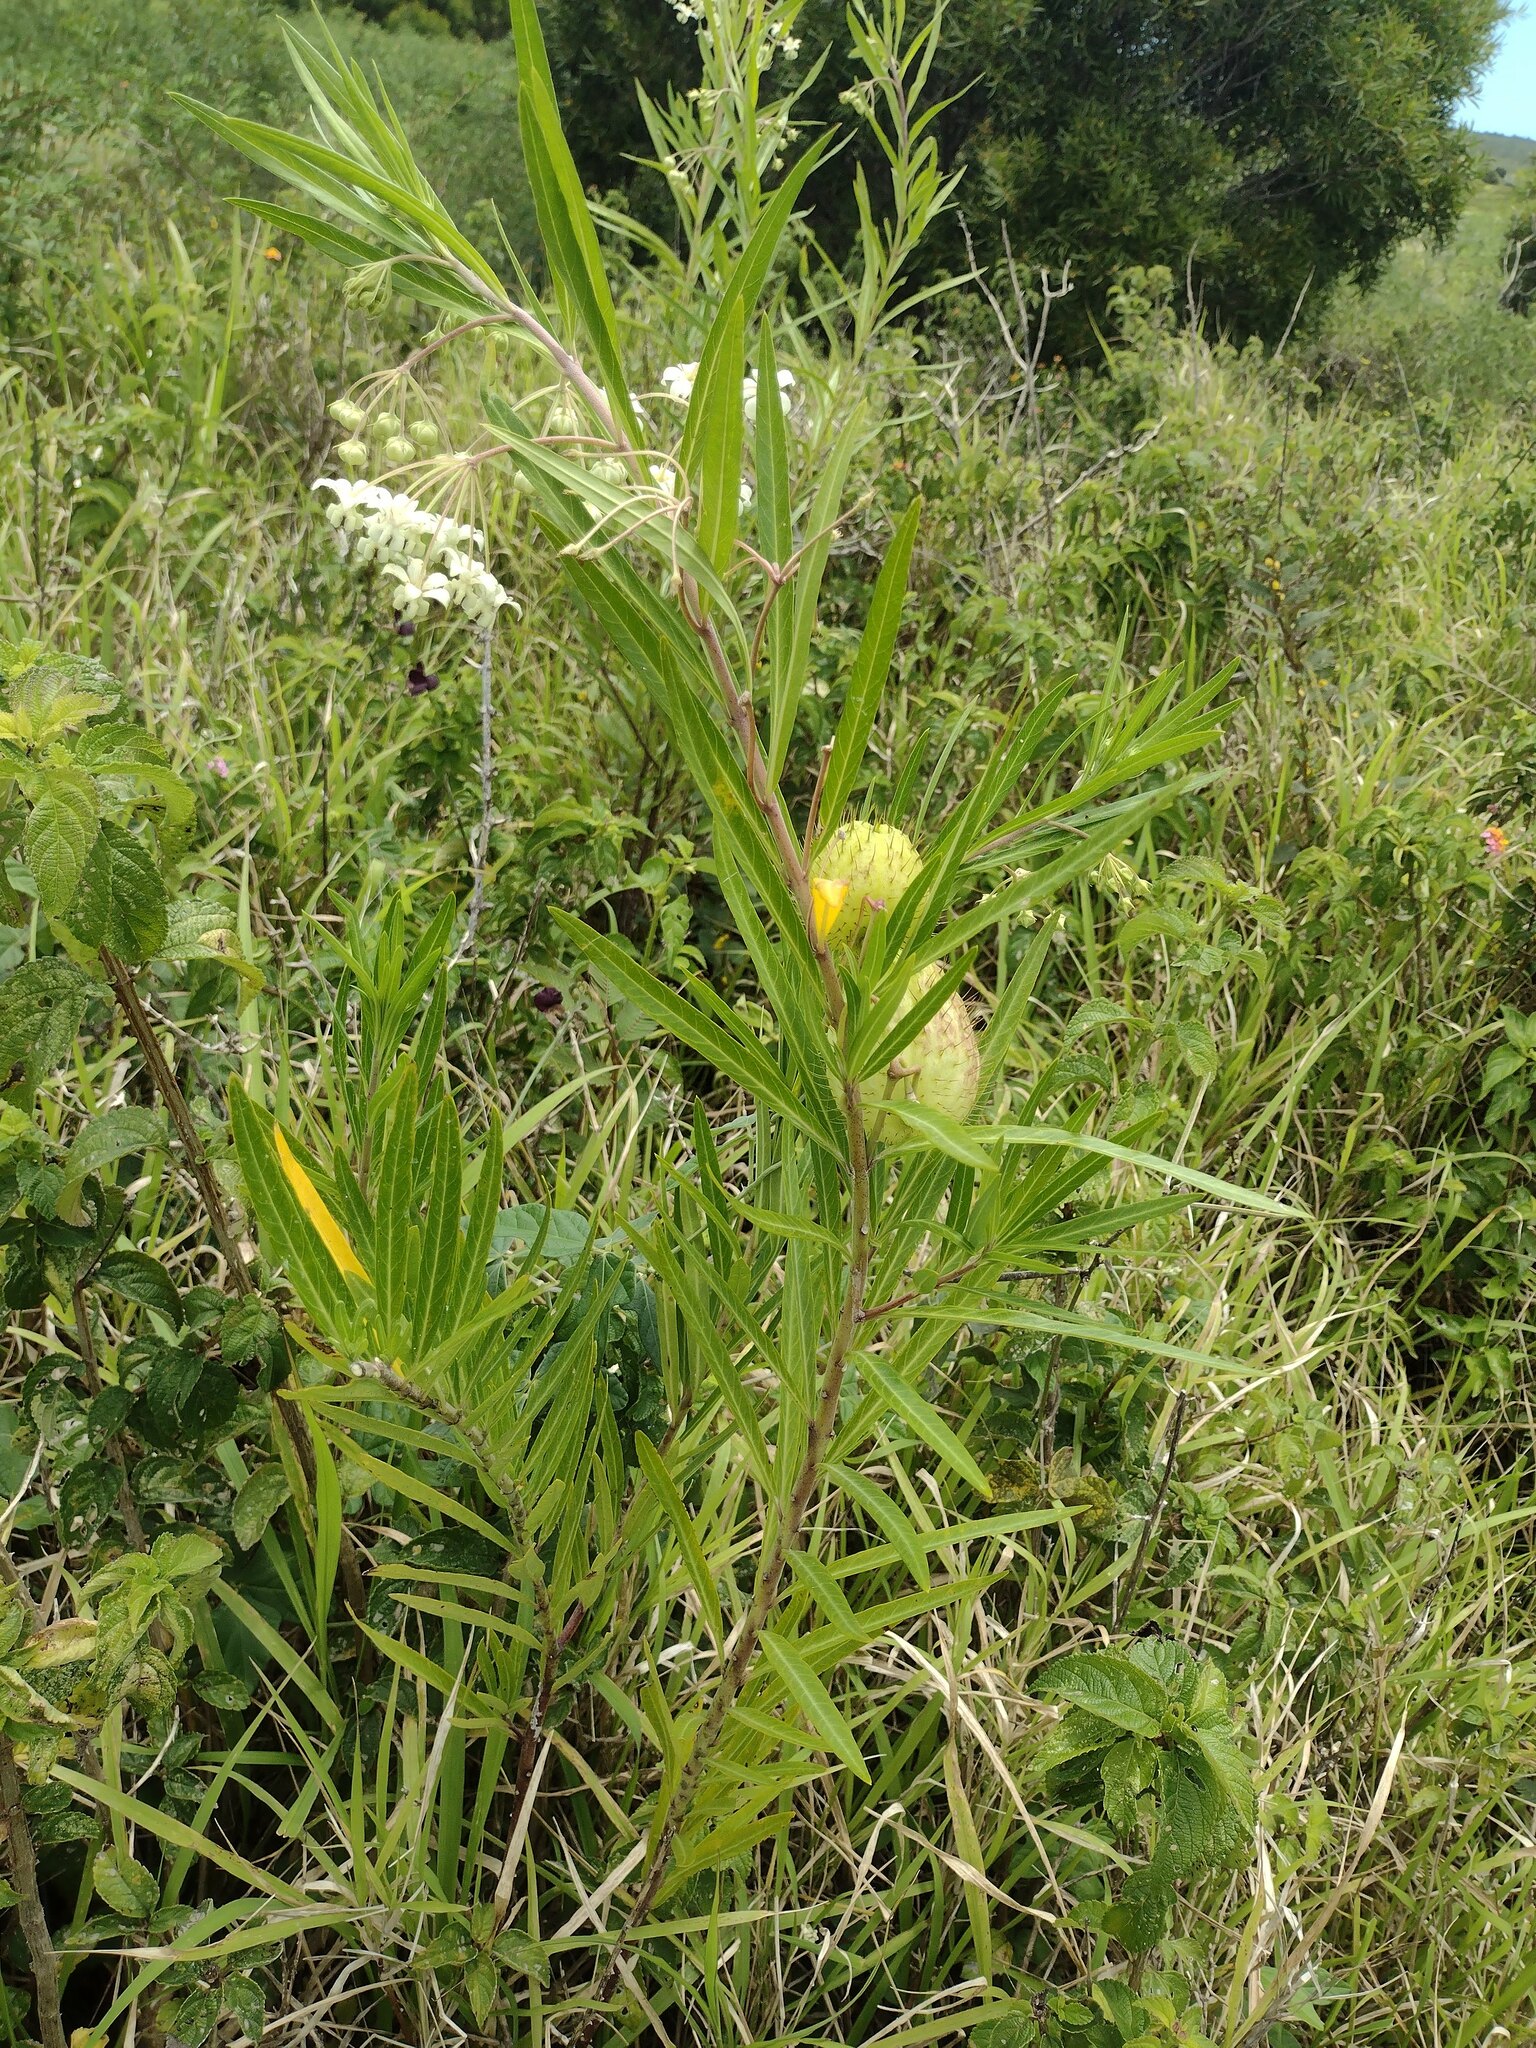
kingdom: Plantae
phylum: Tracheophyta
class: Magnoliopsida
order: Gentianales
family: Apocynaceae
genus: Gomphocarpus
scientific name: Gomphocarpus physocarpus
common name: Balloon cotton bush
